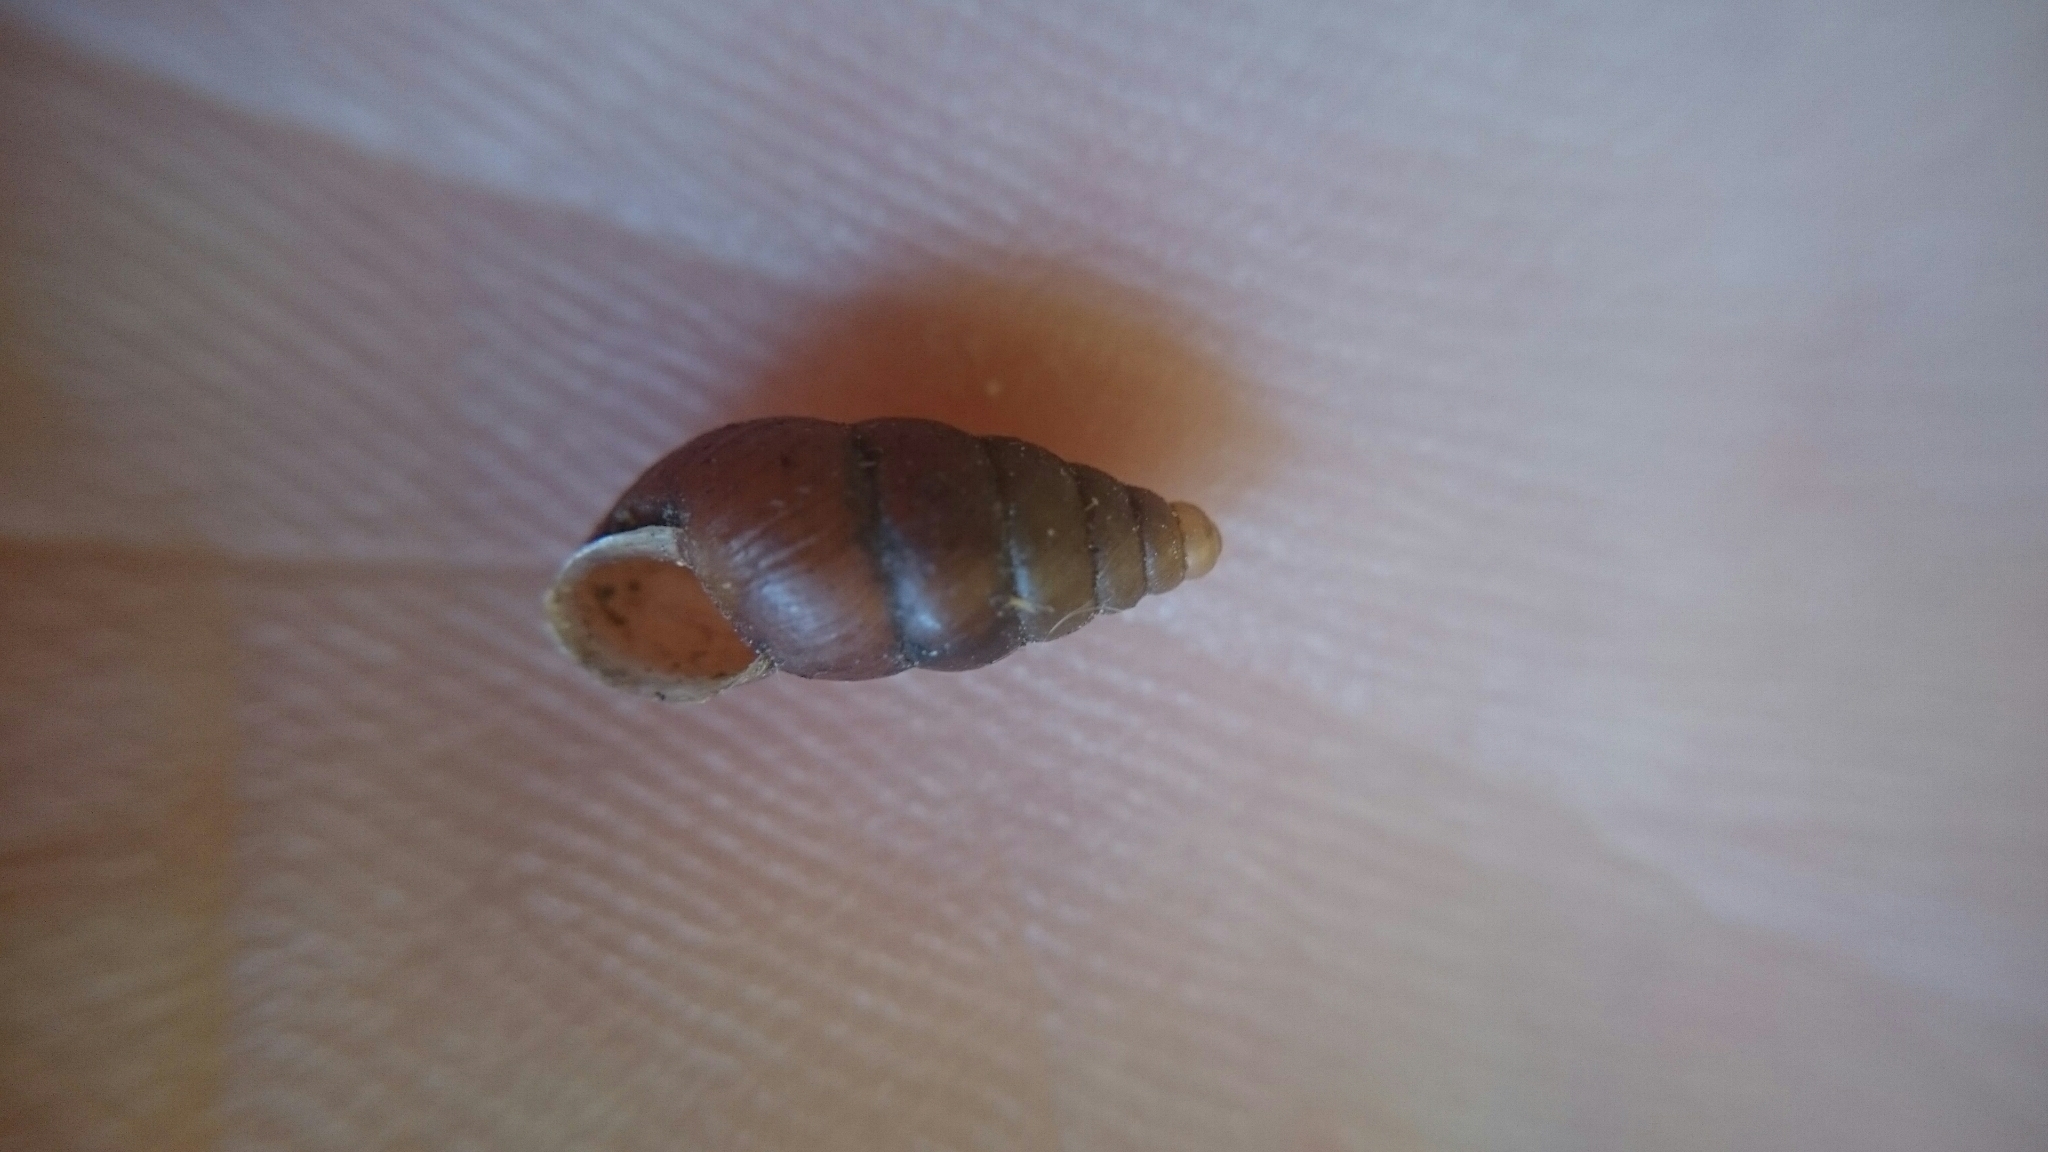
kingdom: Animalia
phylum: Mollusca
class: Gastropoda
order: Stylommatophora
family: Enidae
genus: Merdigera
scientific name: Merdigera obscura
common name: Lesser bulin
